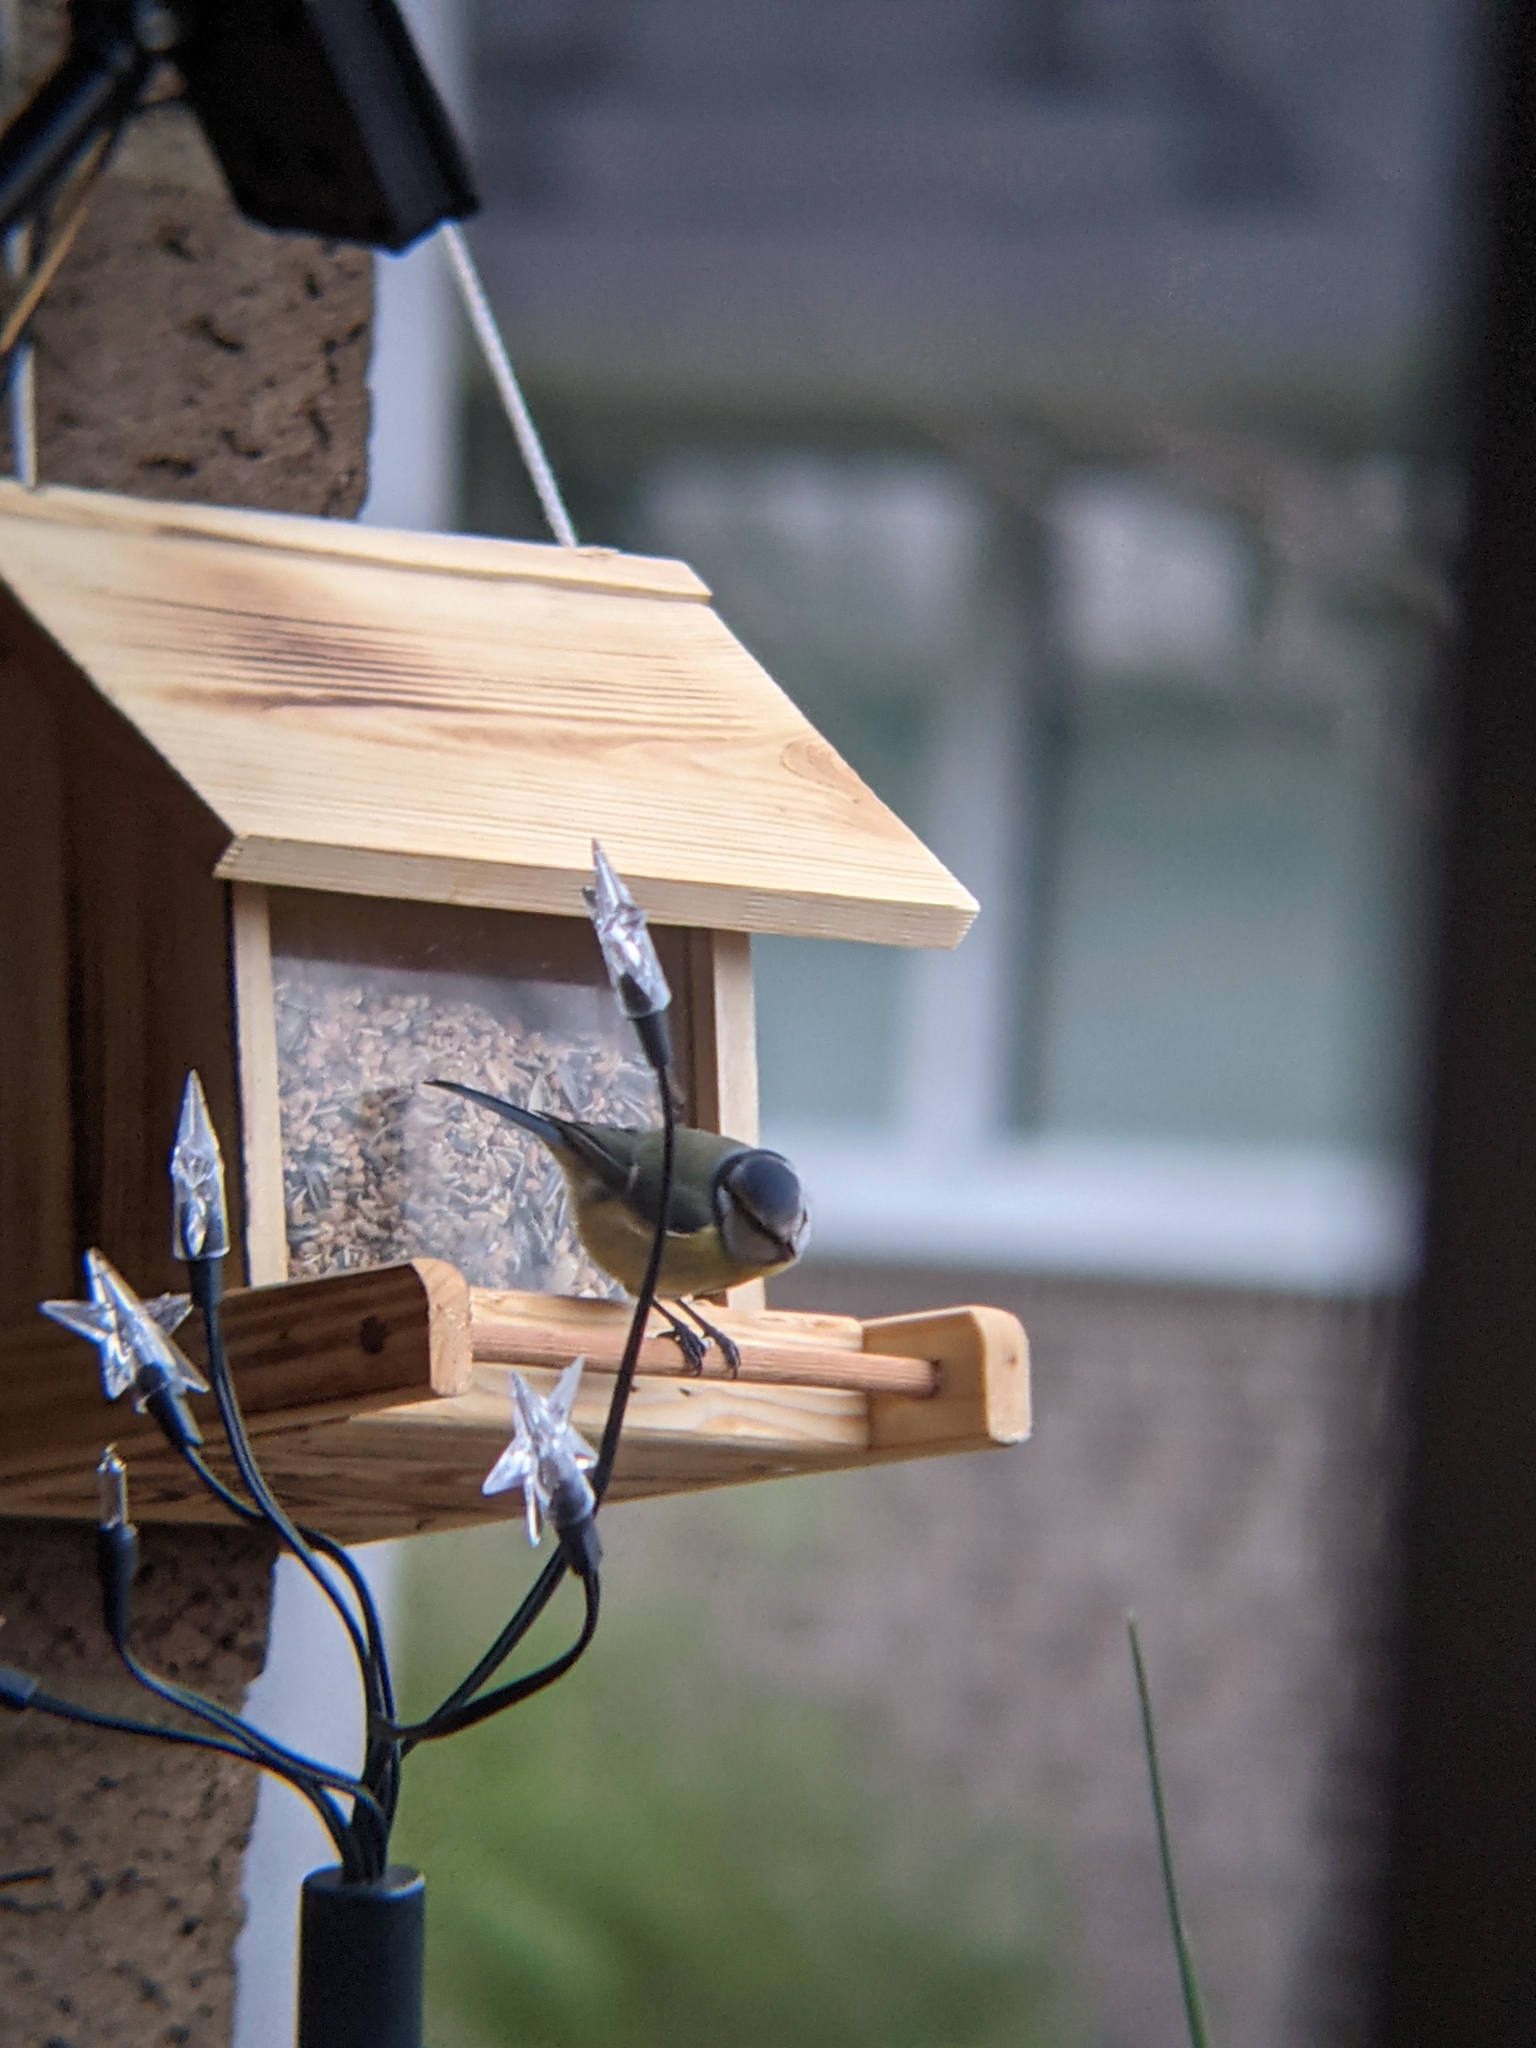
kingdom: Animalia
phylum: Chordata
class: Aves
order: Passeriformes
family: Paridae
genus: Cyanistes
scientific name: Cyanistes caeruleus
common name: Eurasian blue tit
